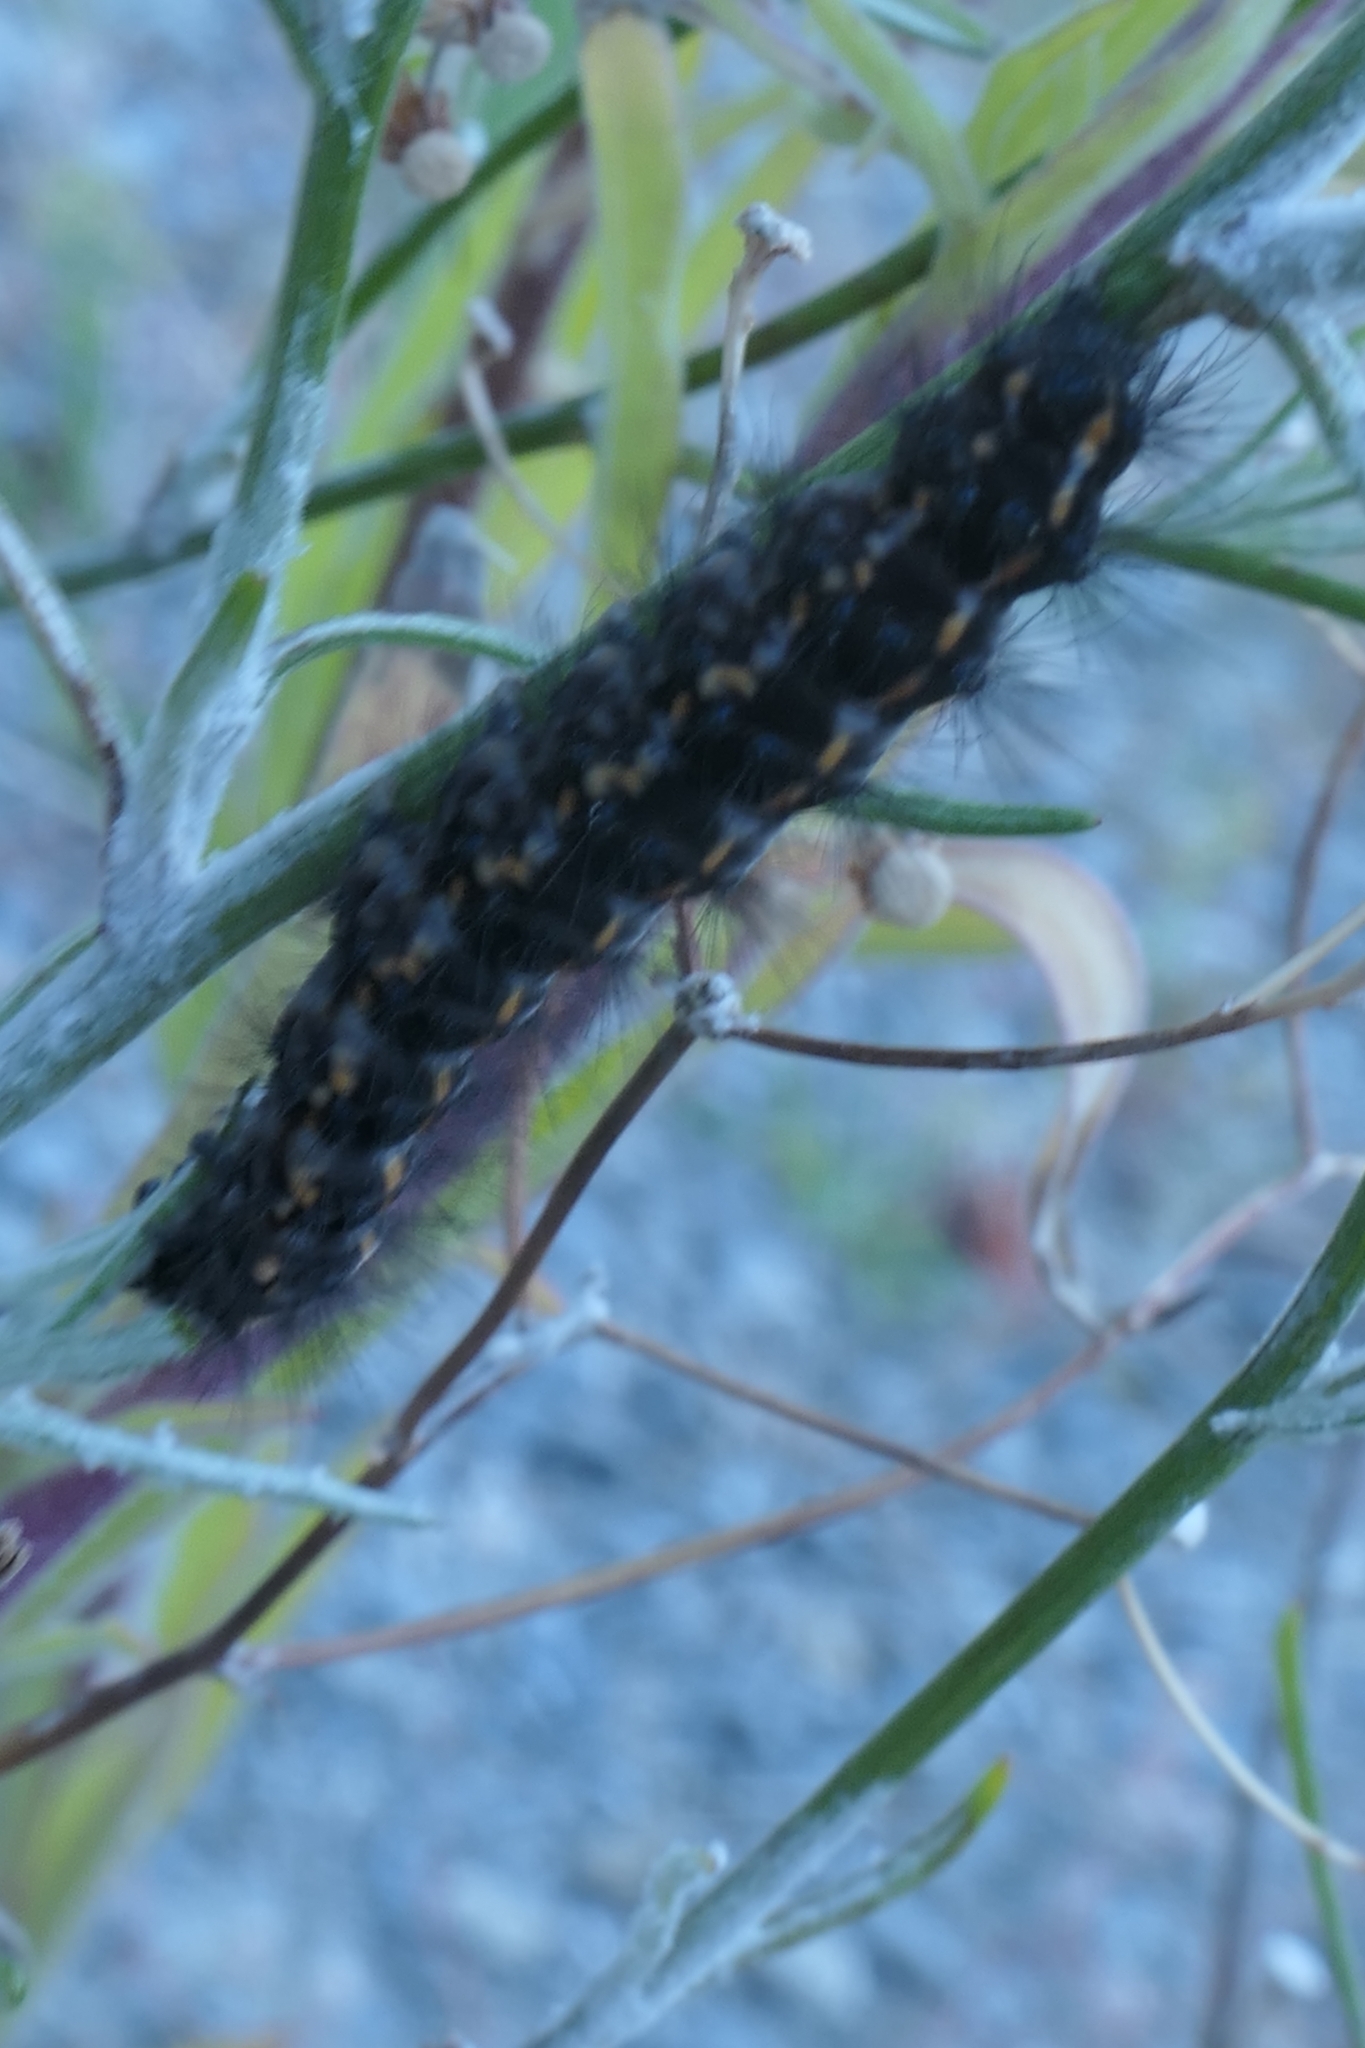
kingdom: Animalia
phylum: Arthropoda
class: Insecta
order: Lepidoptera
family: Erebidae
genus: Nyctemera
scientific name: Nyctemera annulatum
